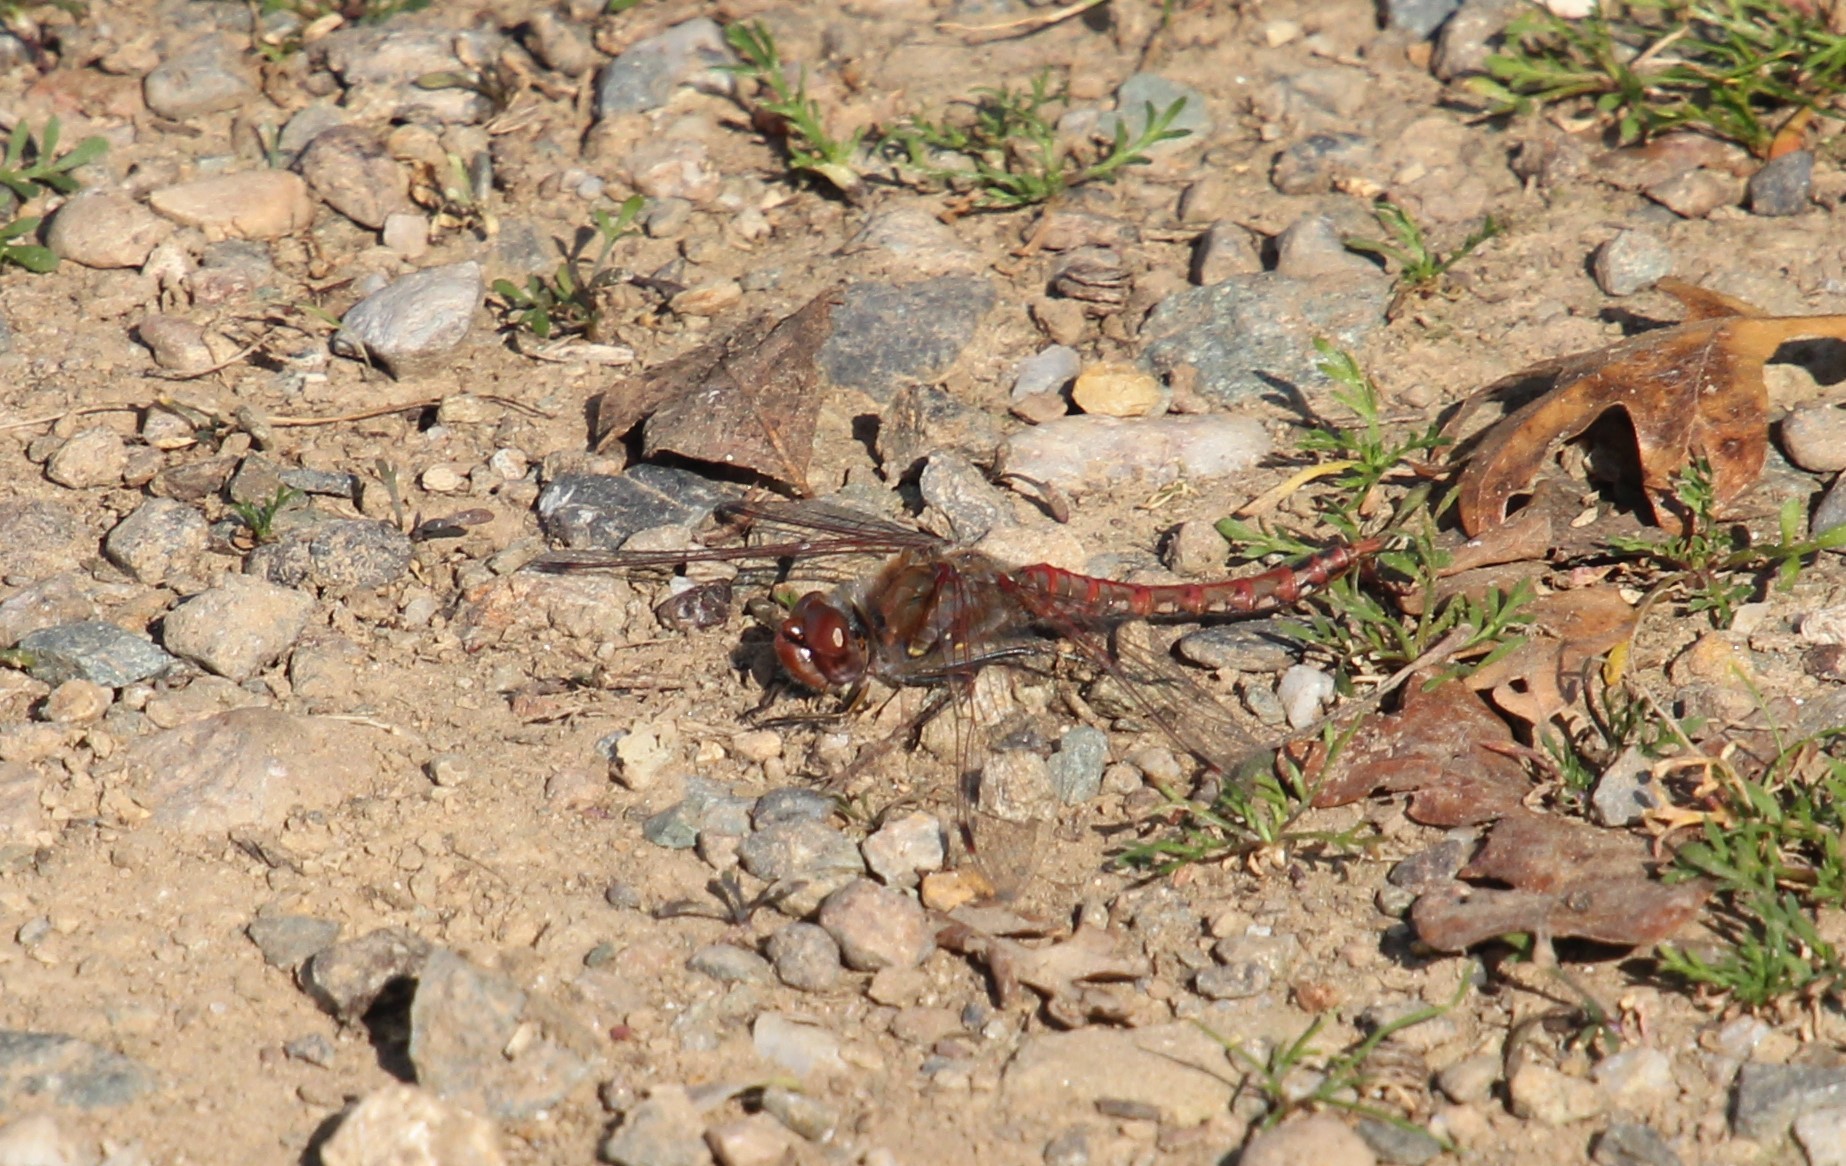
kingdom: Animalia
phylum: Arthropoda
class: Insecta
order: Odonata
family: Libellulidae
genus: Sympetrum
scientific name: Sympetrum corruptum
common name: Variegated meadowhawk
